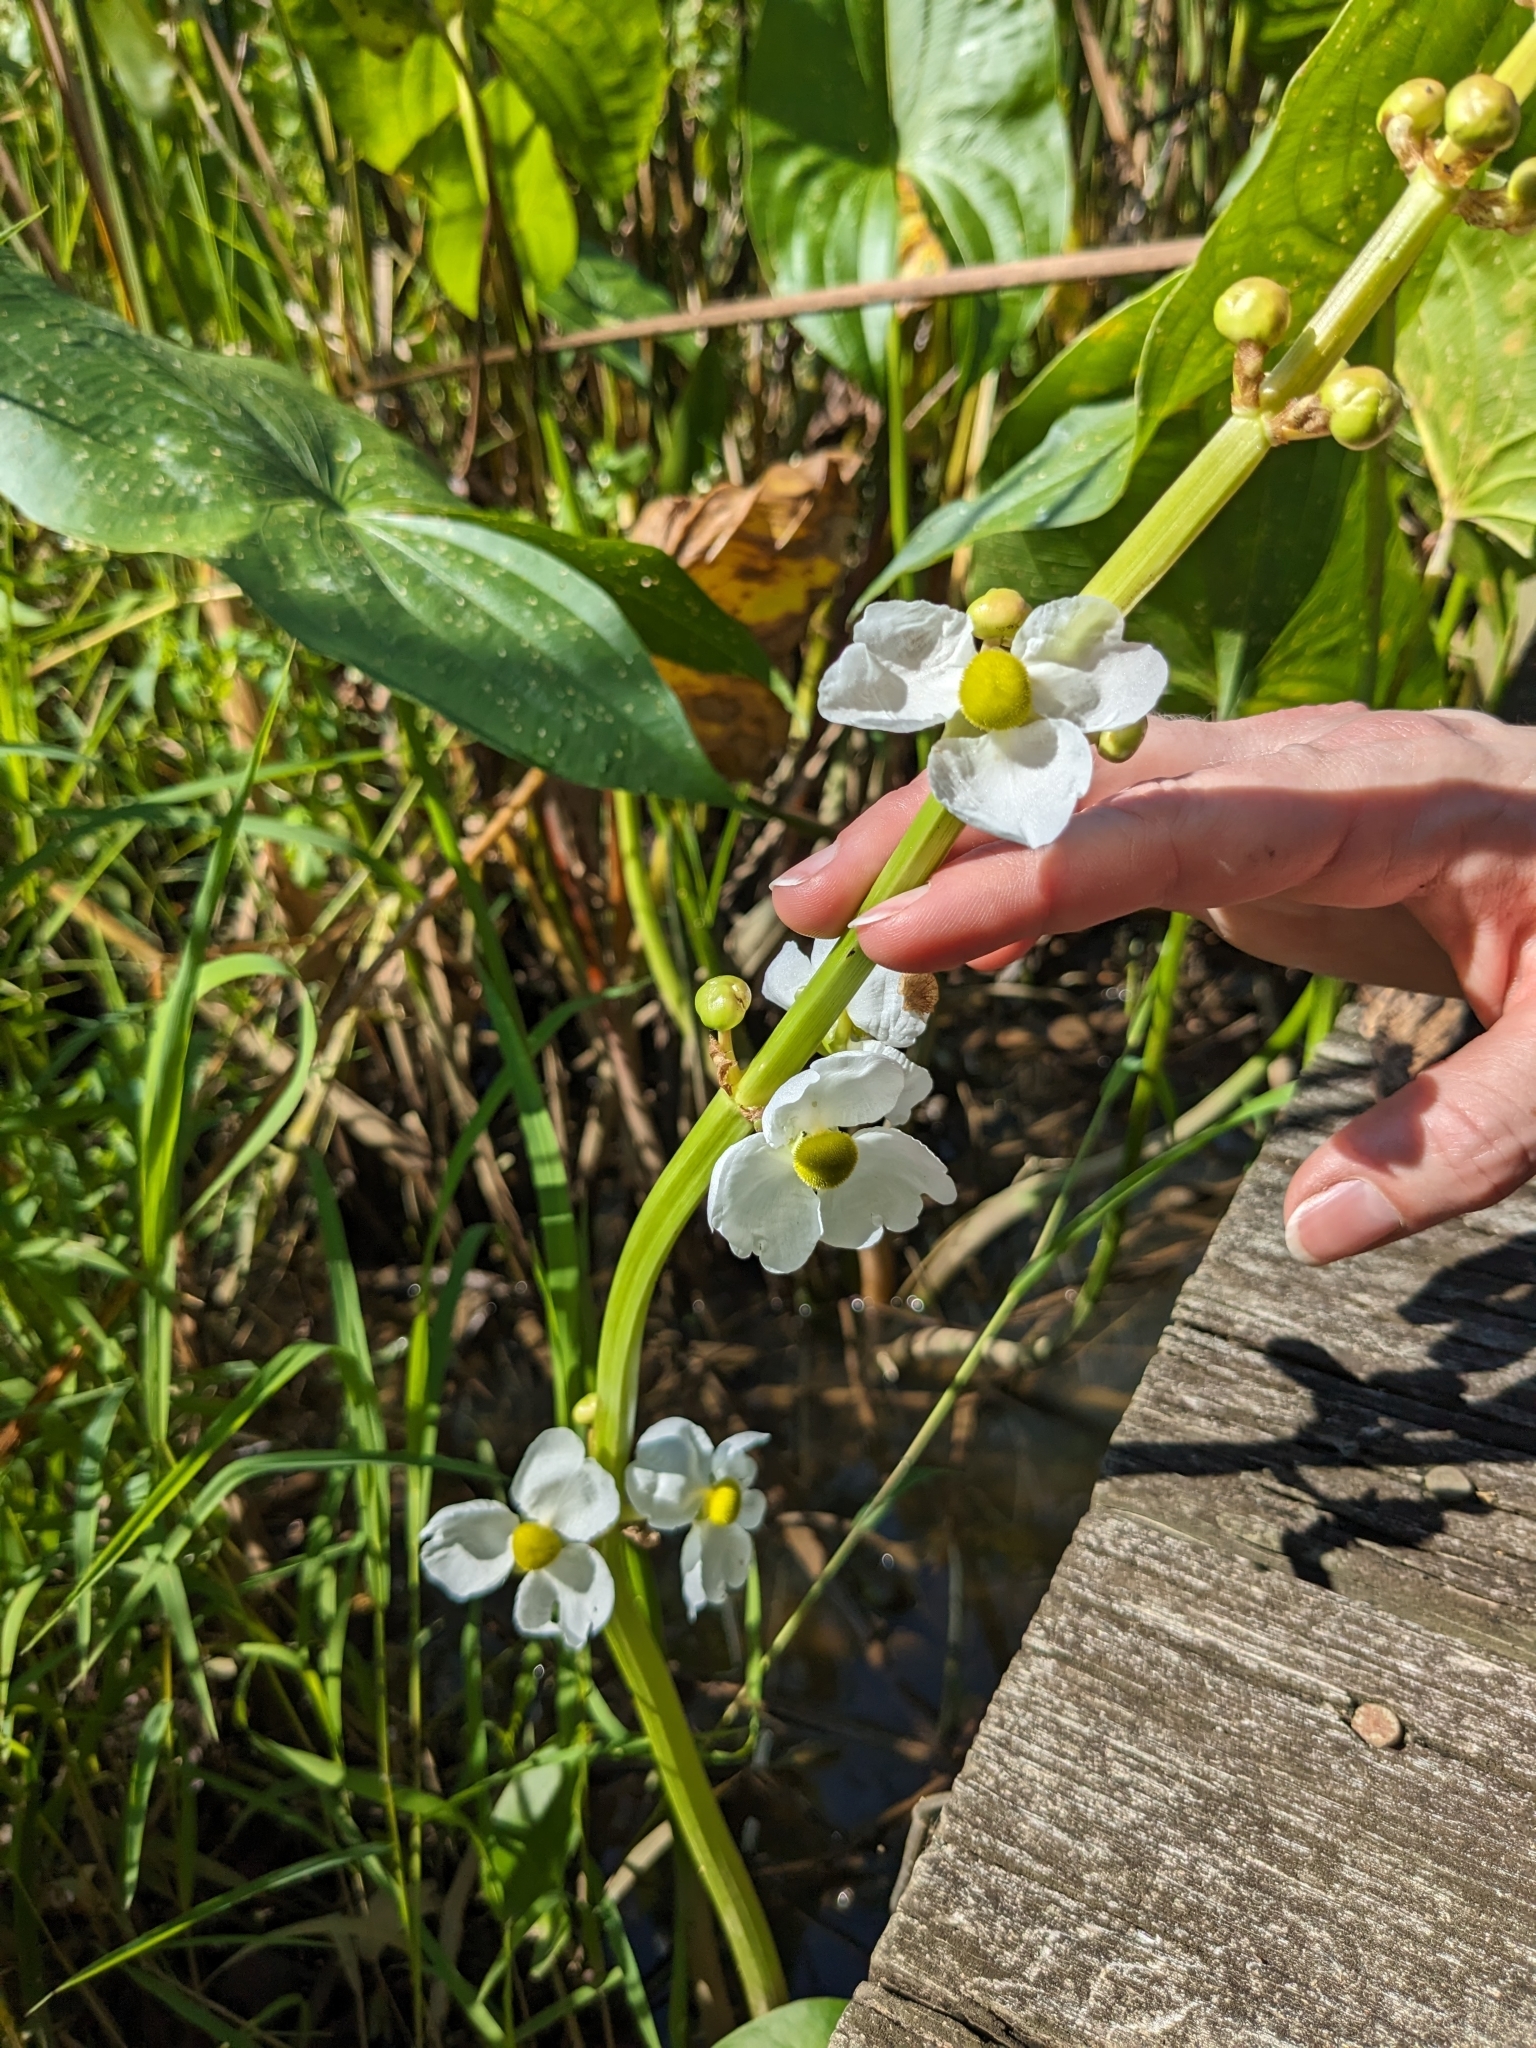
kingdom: Plantae
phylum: Tracheophyta
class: Liliopsida
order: Alismatales
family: Alismataceae
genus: Sagittaria
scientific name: Sagittaria latifolia
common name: Duck-potato
